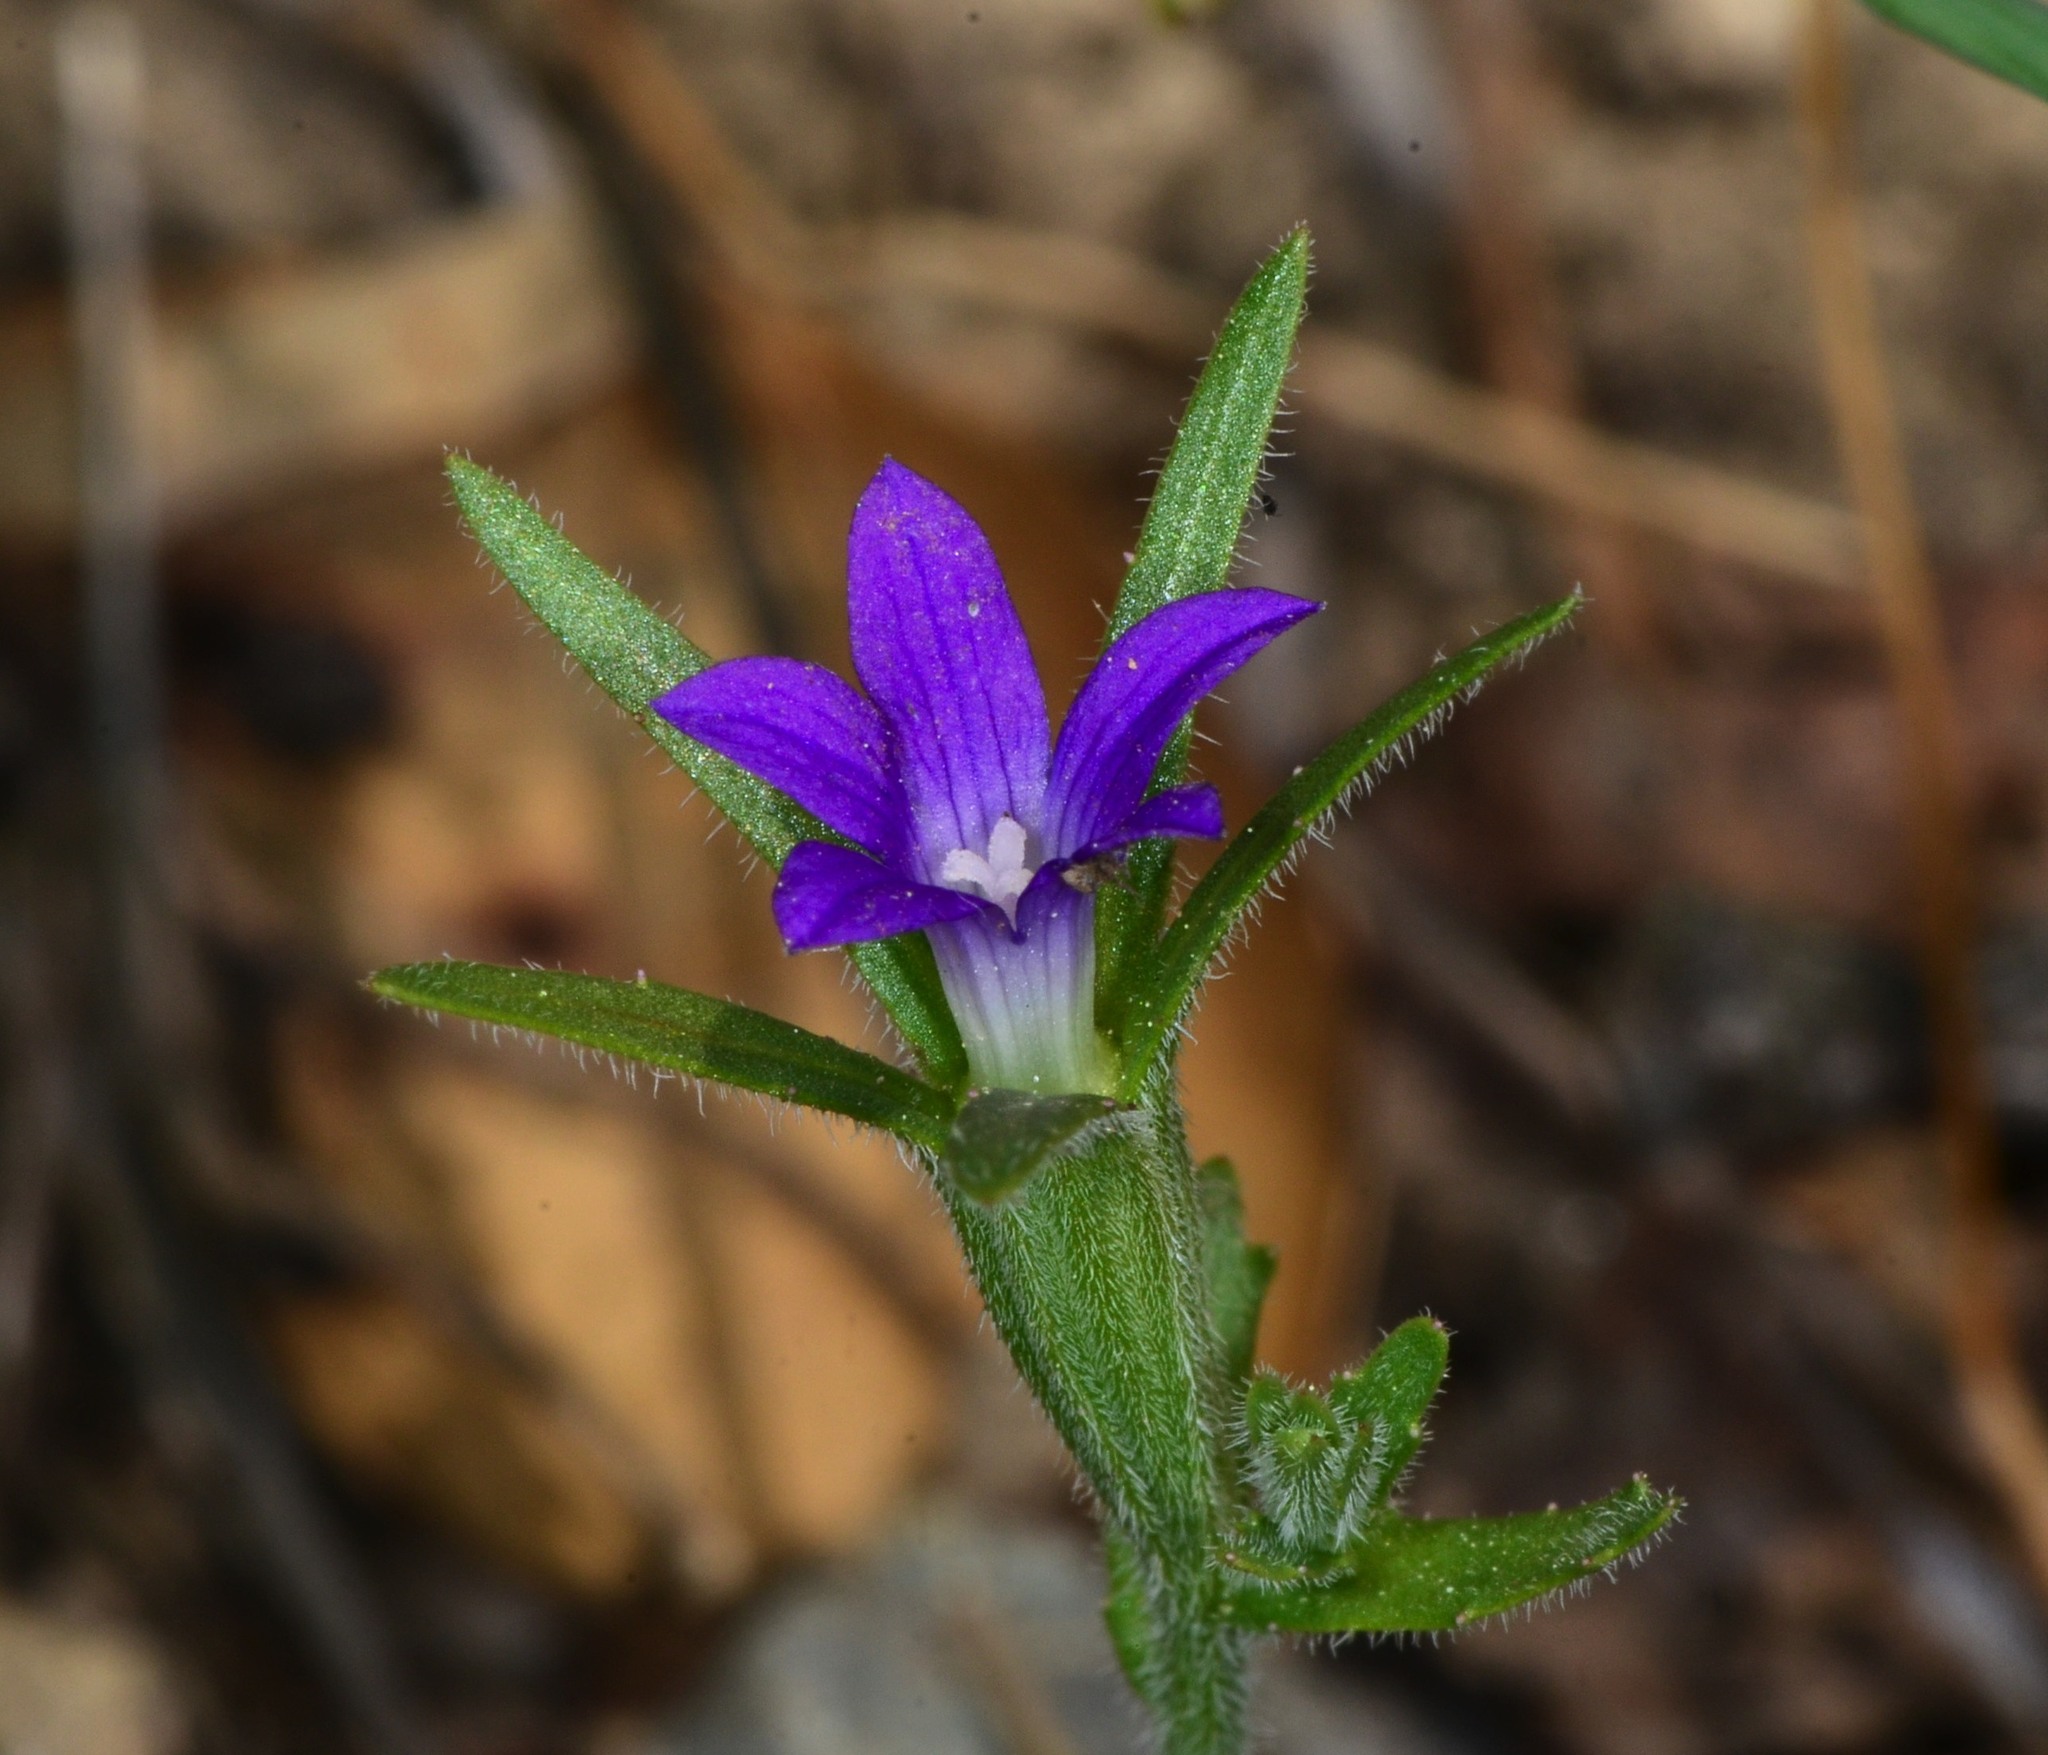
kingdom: Plantae
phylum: Tracheophyta
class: Magnoliopsida
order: Asterales
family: Campanulaceae
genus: Githopsis
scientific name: Githopsis specularioides
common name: Common bluecup
